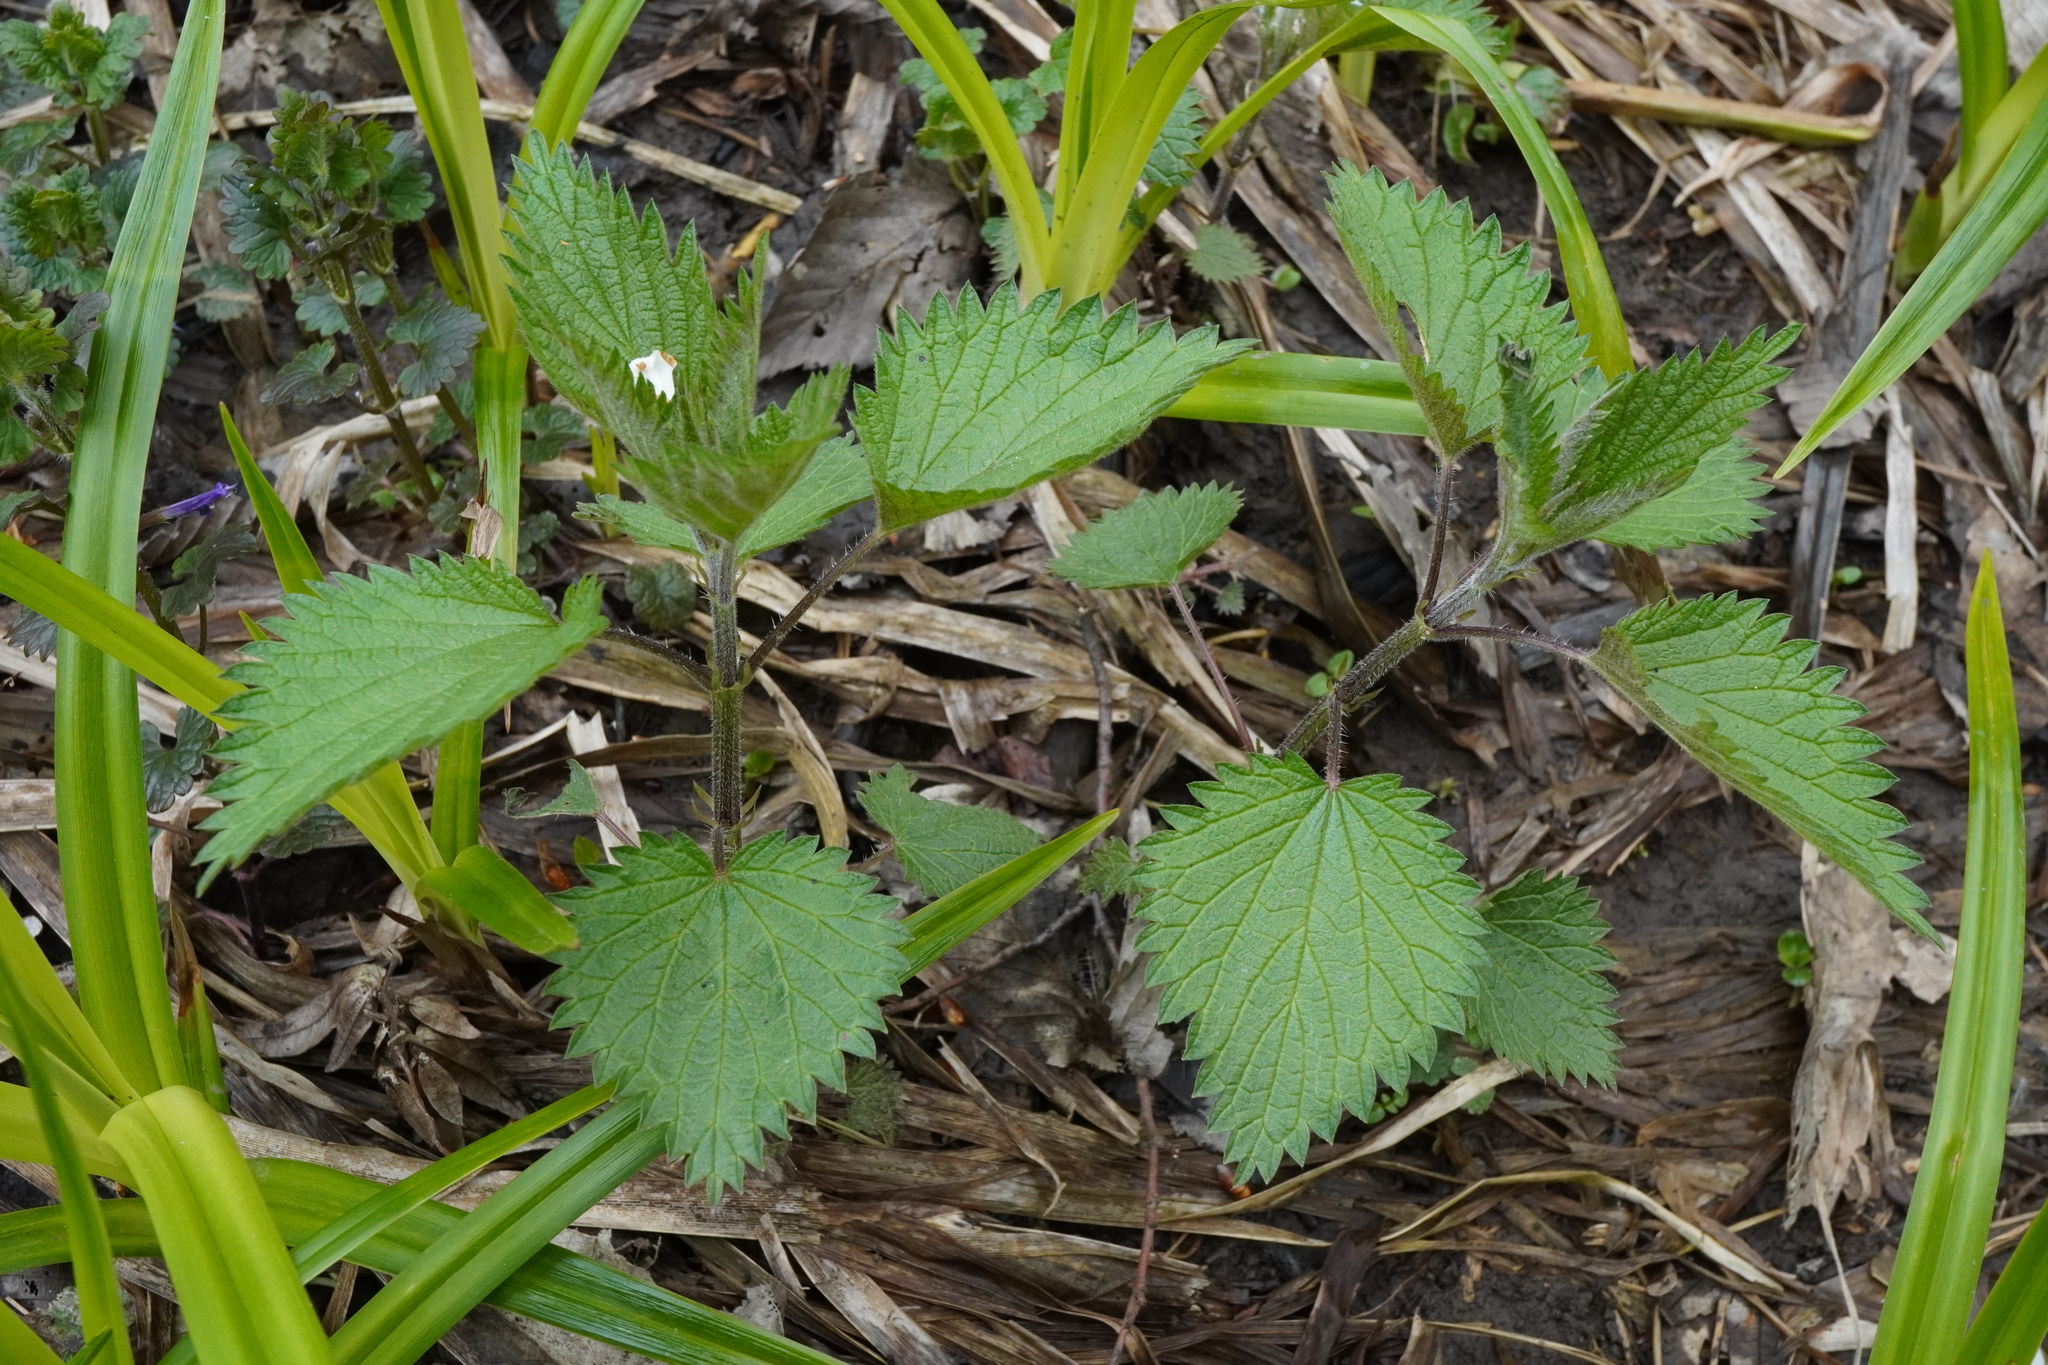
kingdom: Plantae
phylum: Tracheophyta
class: Magnoliopsida
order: Rosales
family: Urticaceae
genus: Urtica
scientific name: Urtica dioica
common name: Common nettle
